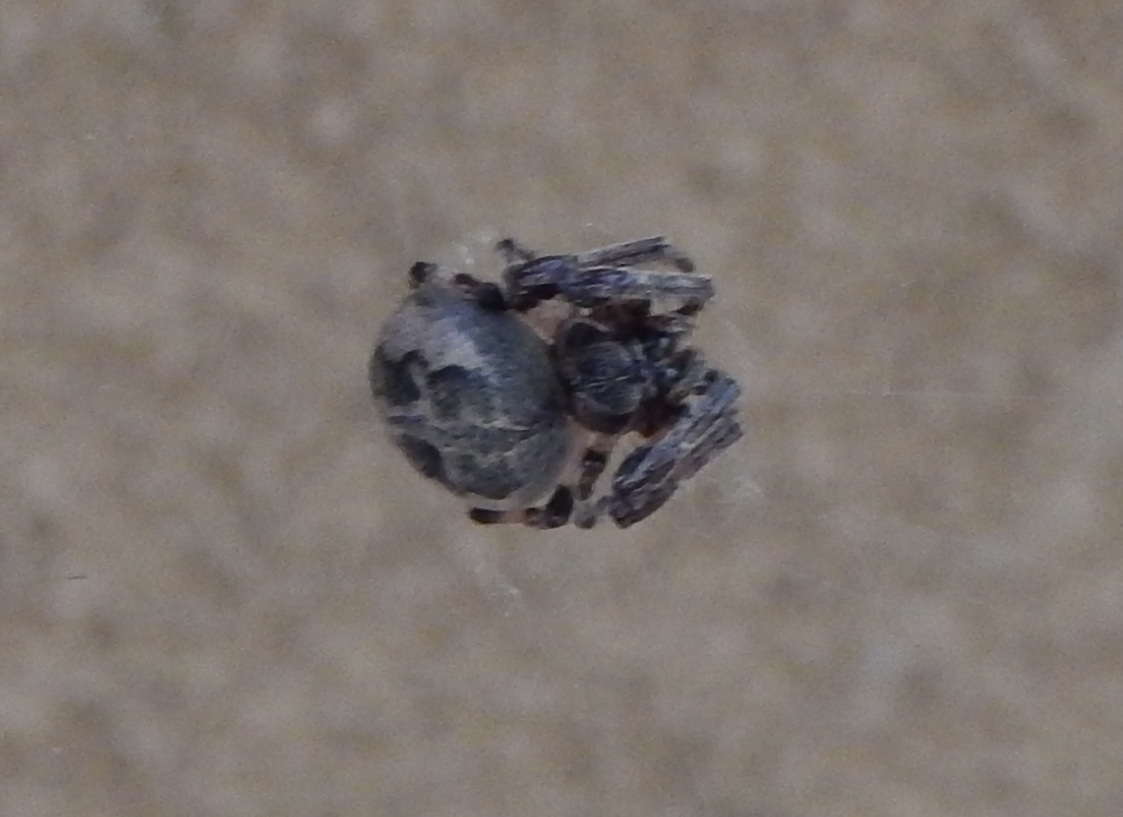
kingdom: Animalia
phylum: Arthropoda
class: Arachnida
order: Araneae
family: Araneidae
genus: Larinioides
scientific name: Larinioides cornutus
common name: Furrow orbweaver
